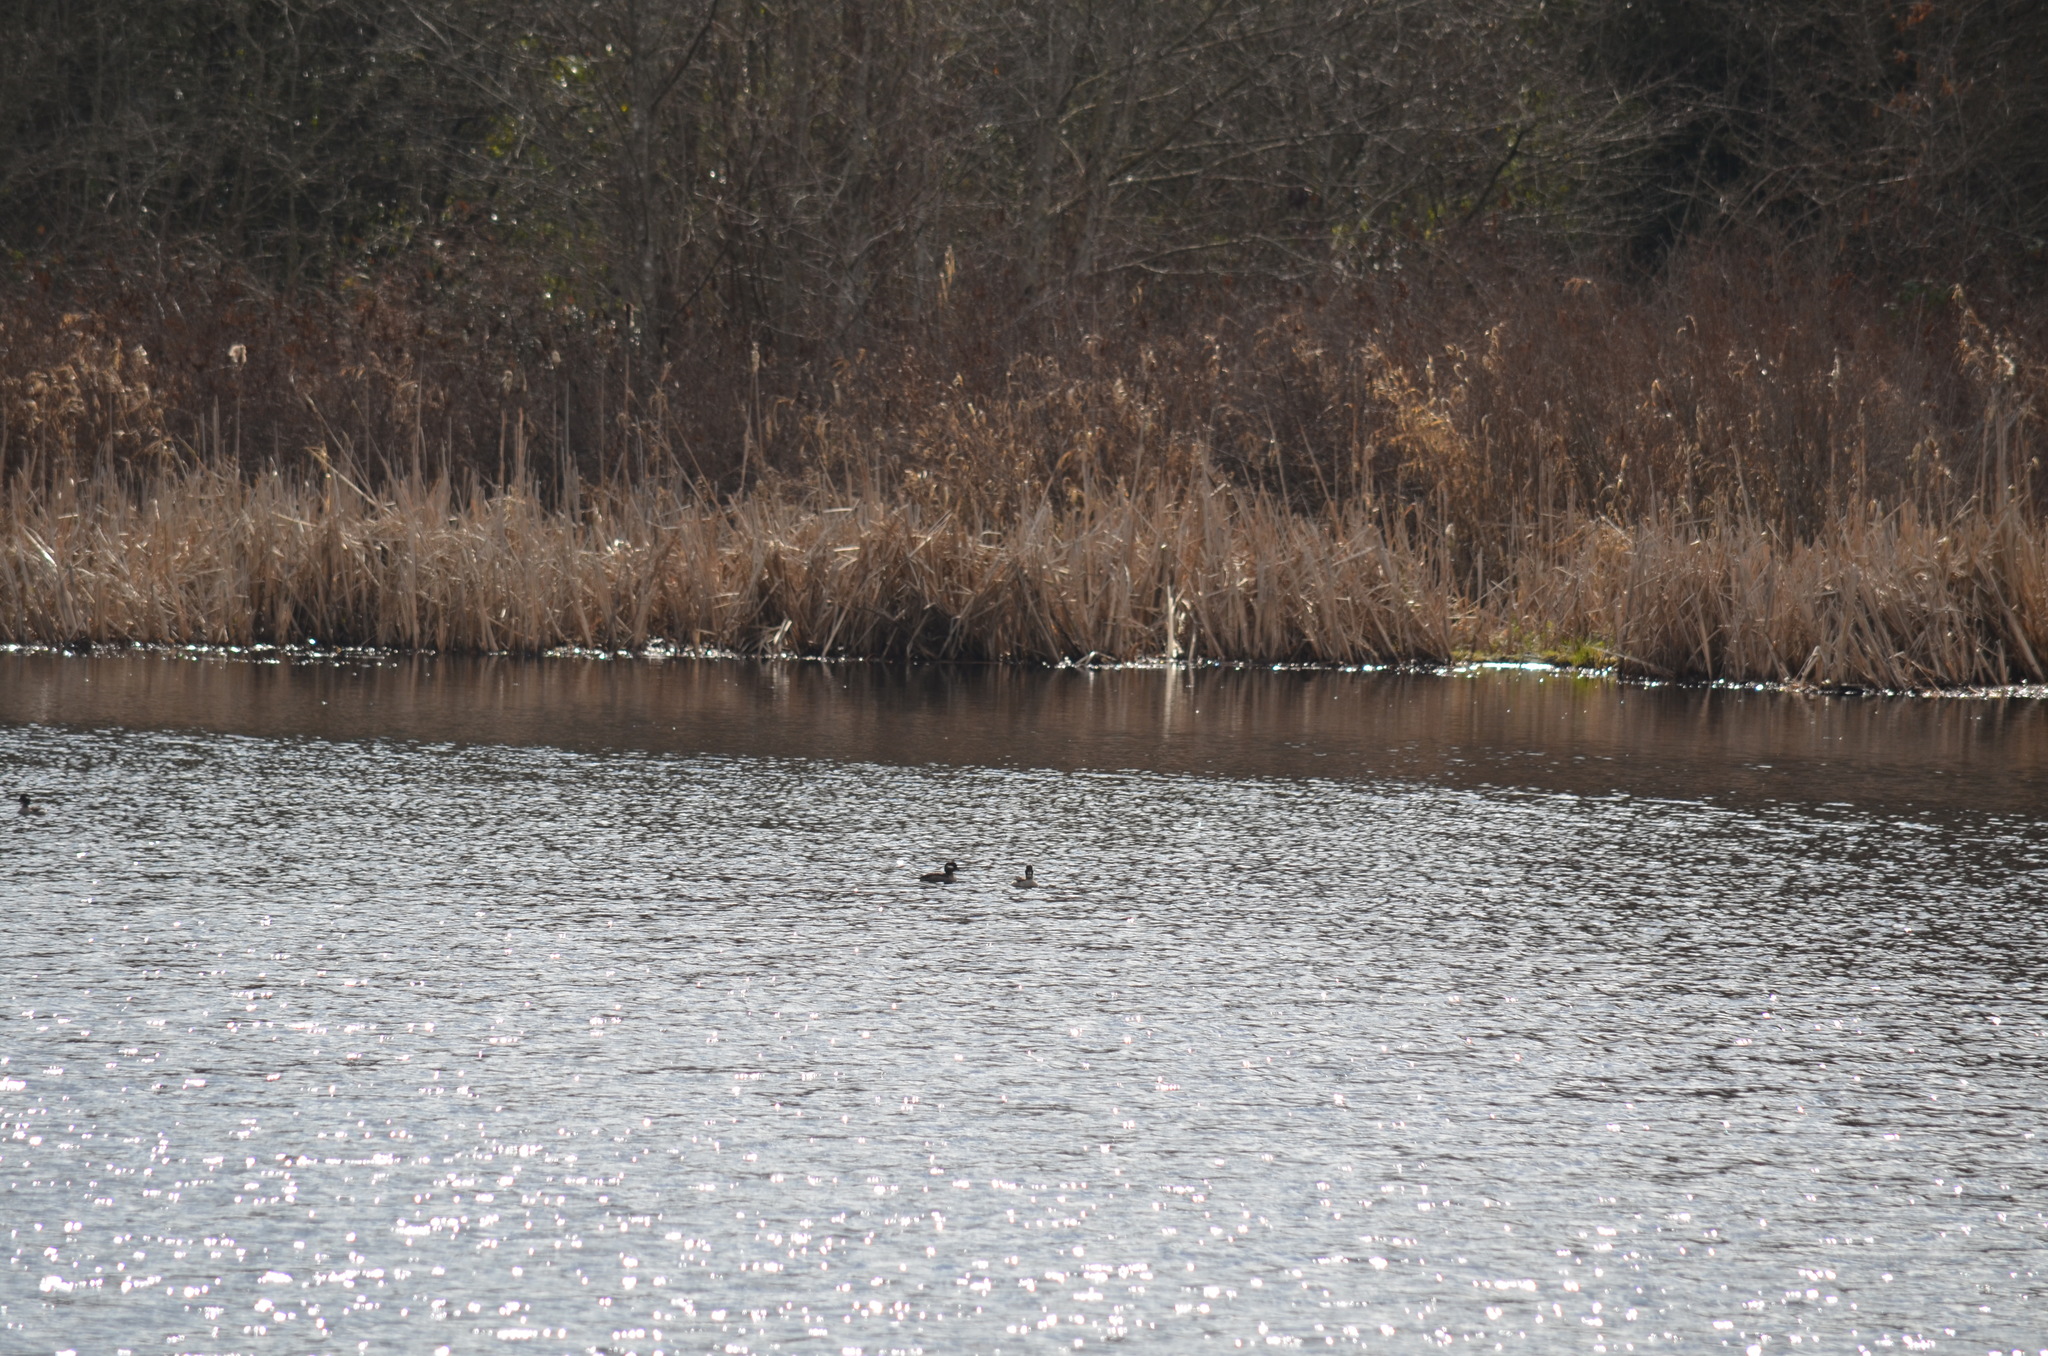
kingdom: Animalia
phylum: Chordata
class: Aves
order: Anseriformes
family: Anatidae
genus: Bucephala
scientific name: Bucephala albeola
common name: Bufflehead
